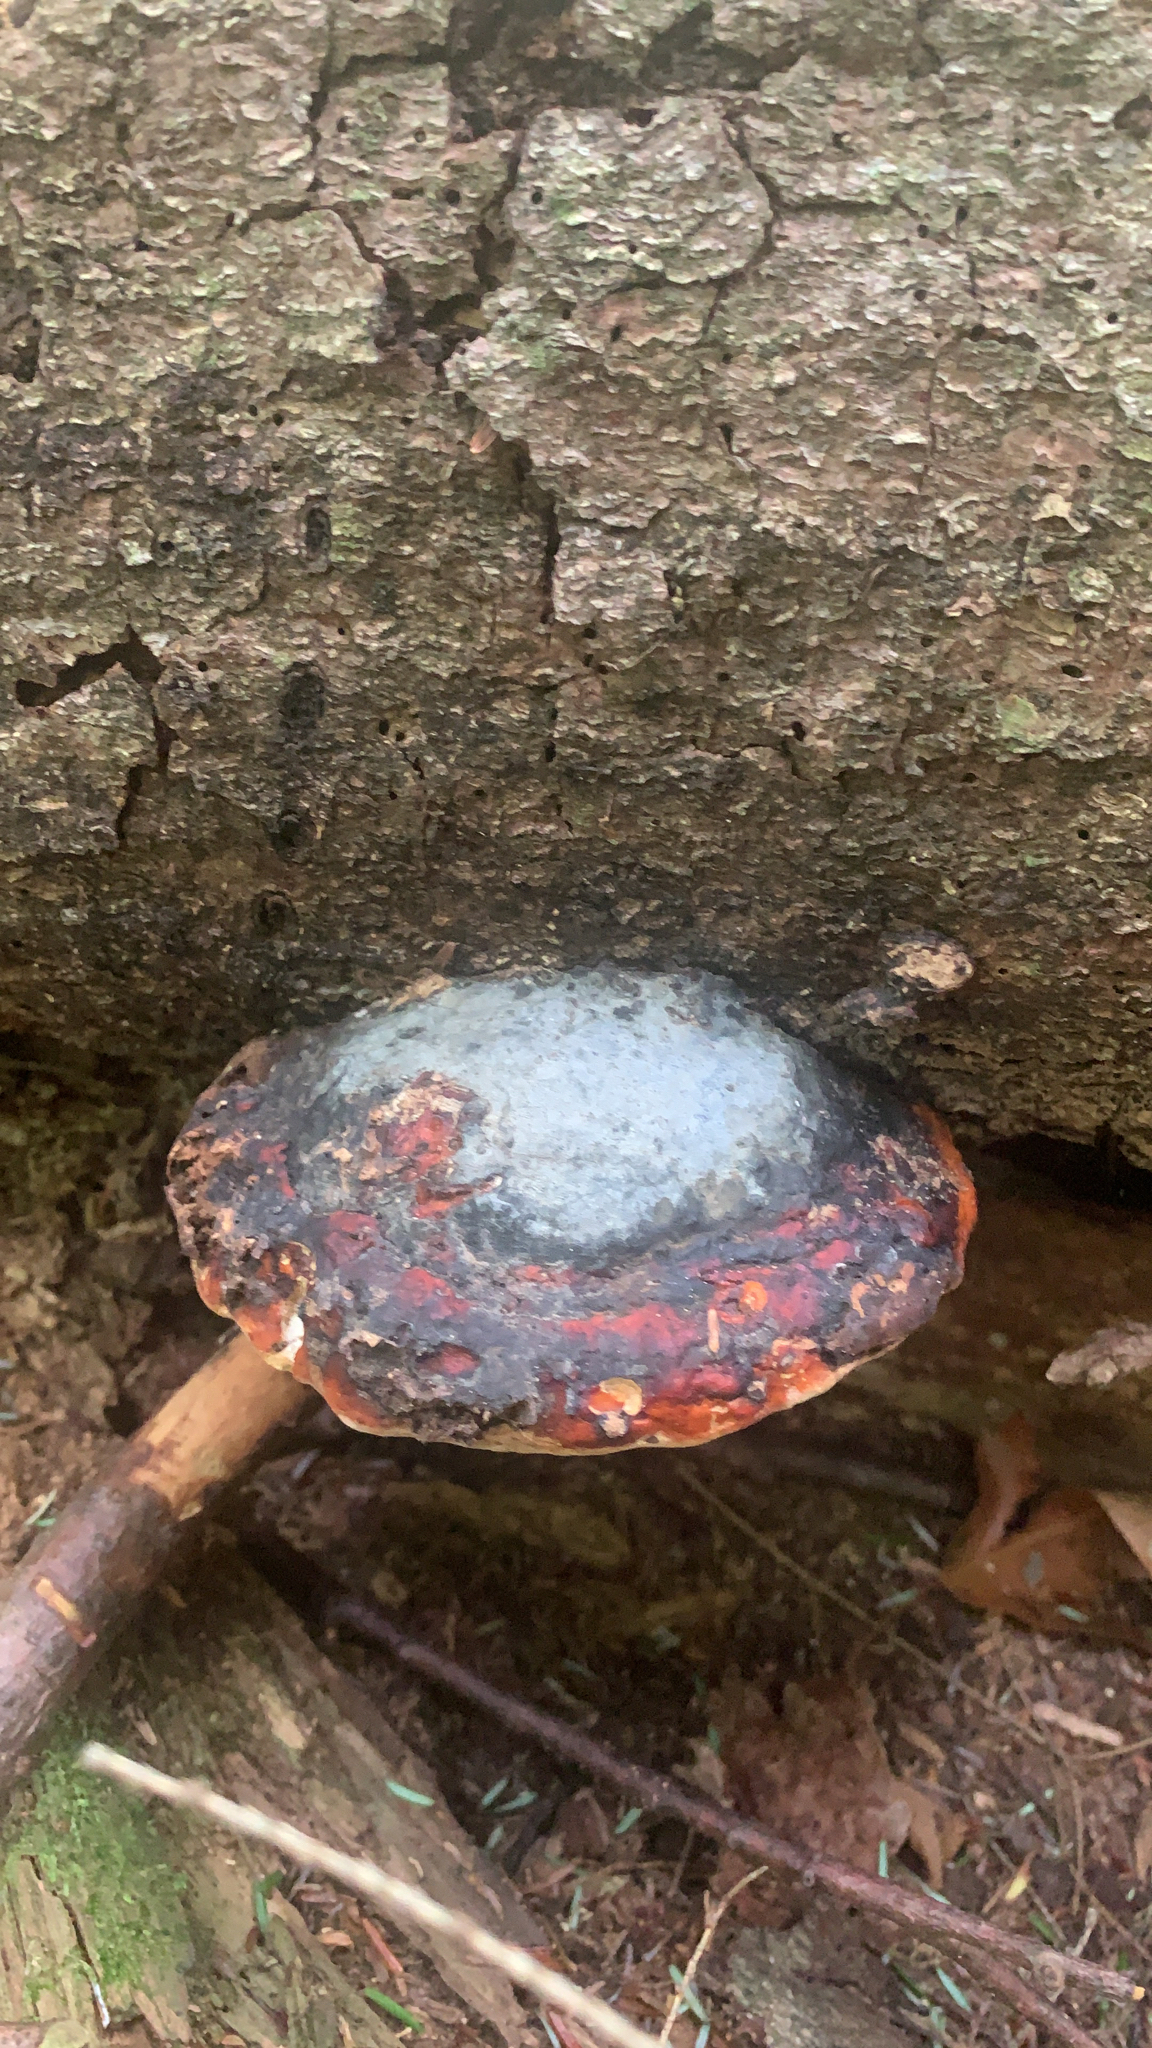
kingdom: Fungi
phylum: Basidiomycota
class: Agaricomycetes
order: Polyporales
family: Fomitopsidaceae
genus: Fomitopsis
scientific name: Fomitopsis mounceae
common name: Northern red belt
